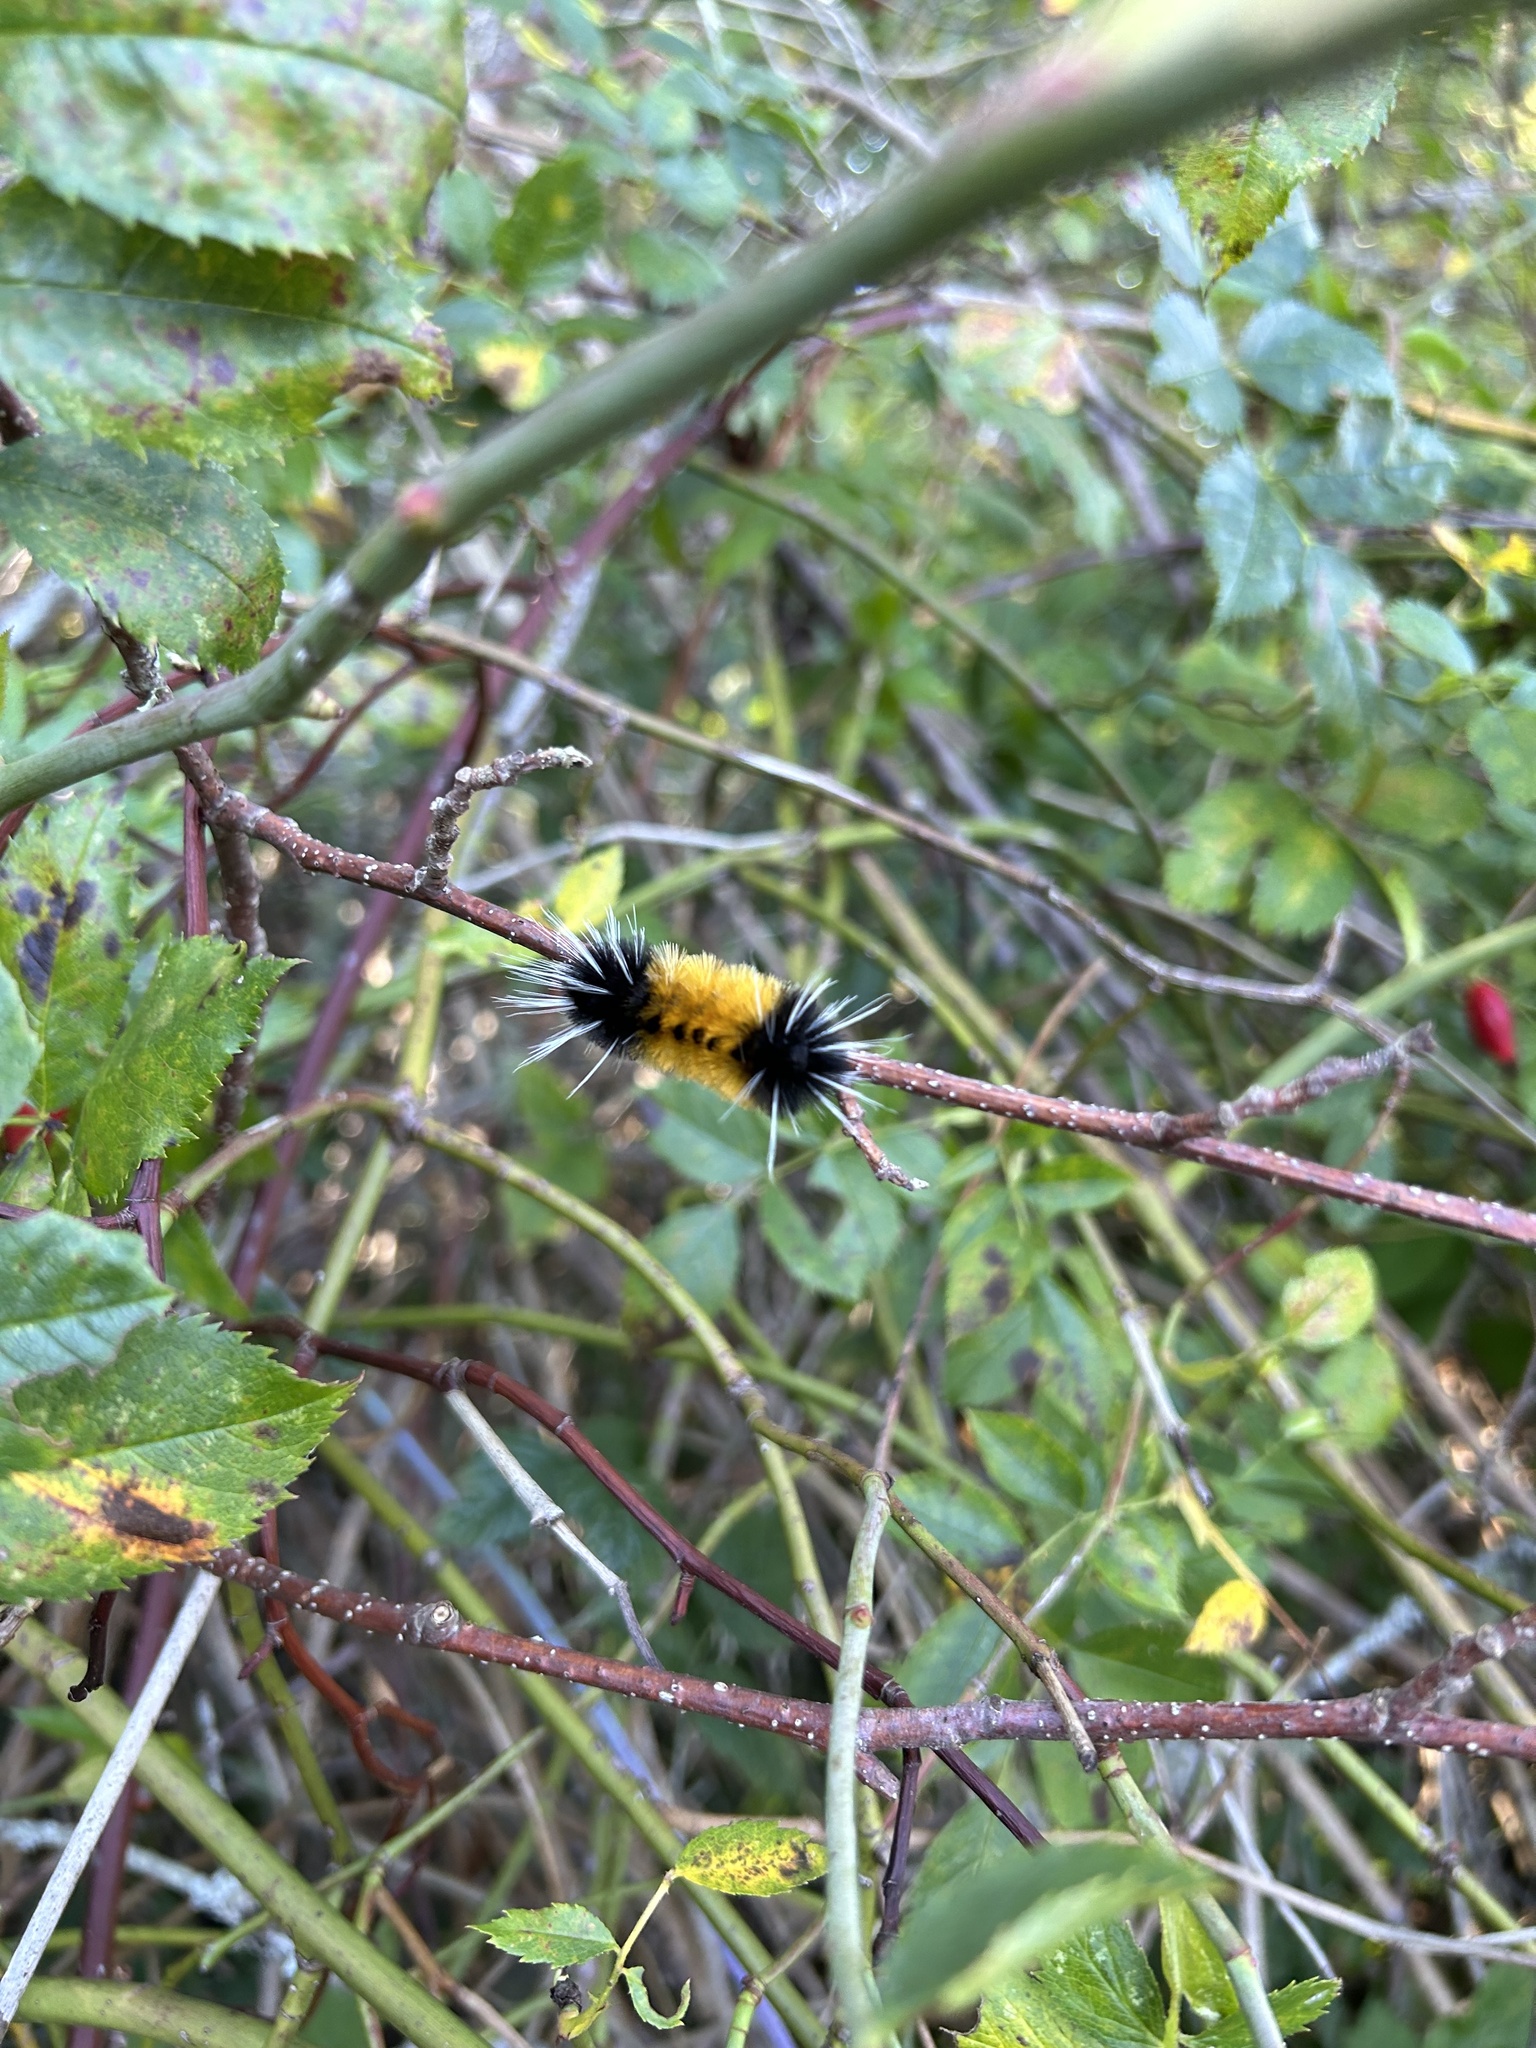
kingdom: Animalia
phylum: Arthropoda
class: Insecta
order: Lepidoptera
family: Erebidae
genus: Lophocampa
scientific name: Lophocampa maculata
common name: Spotted tussock moth
